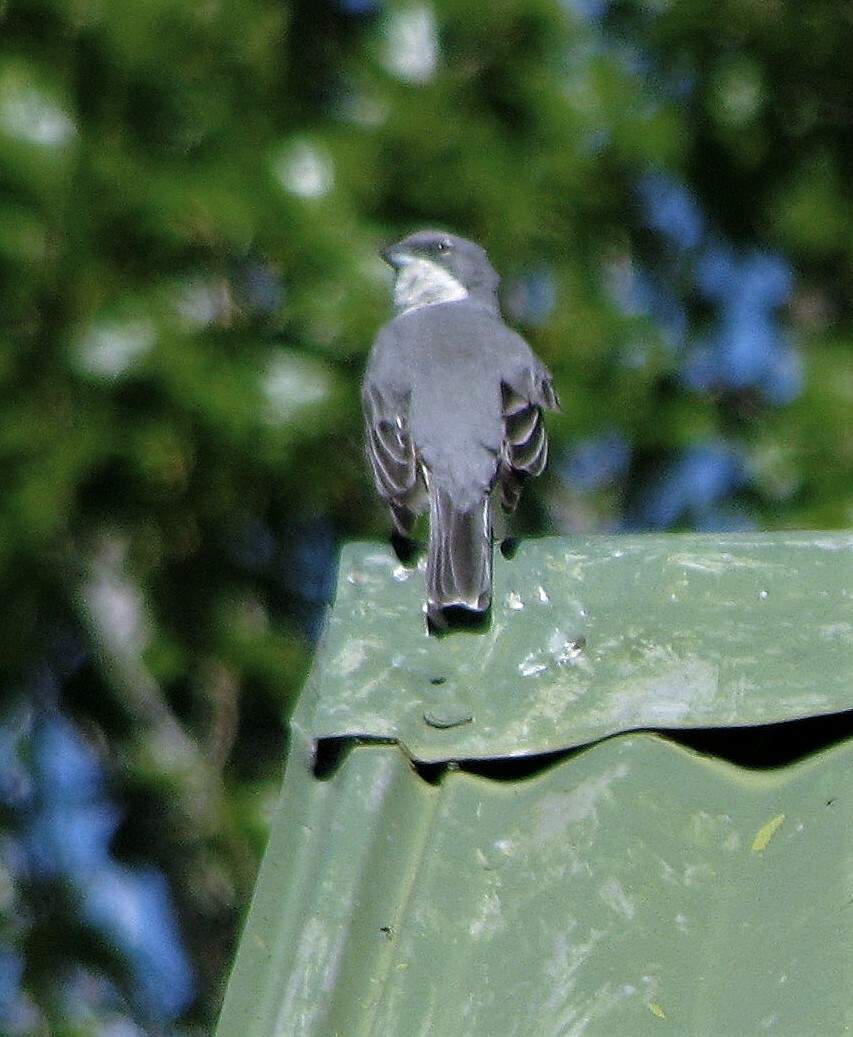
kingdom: Animalia
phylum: Chordata
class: Aves
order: Passeriformes
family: Thraupidae
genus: Diuca
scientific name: Diuca diuca
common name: Common diuca finch
